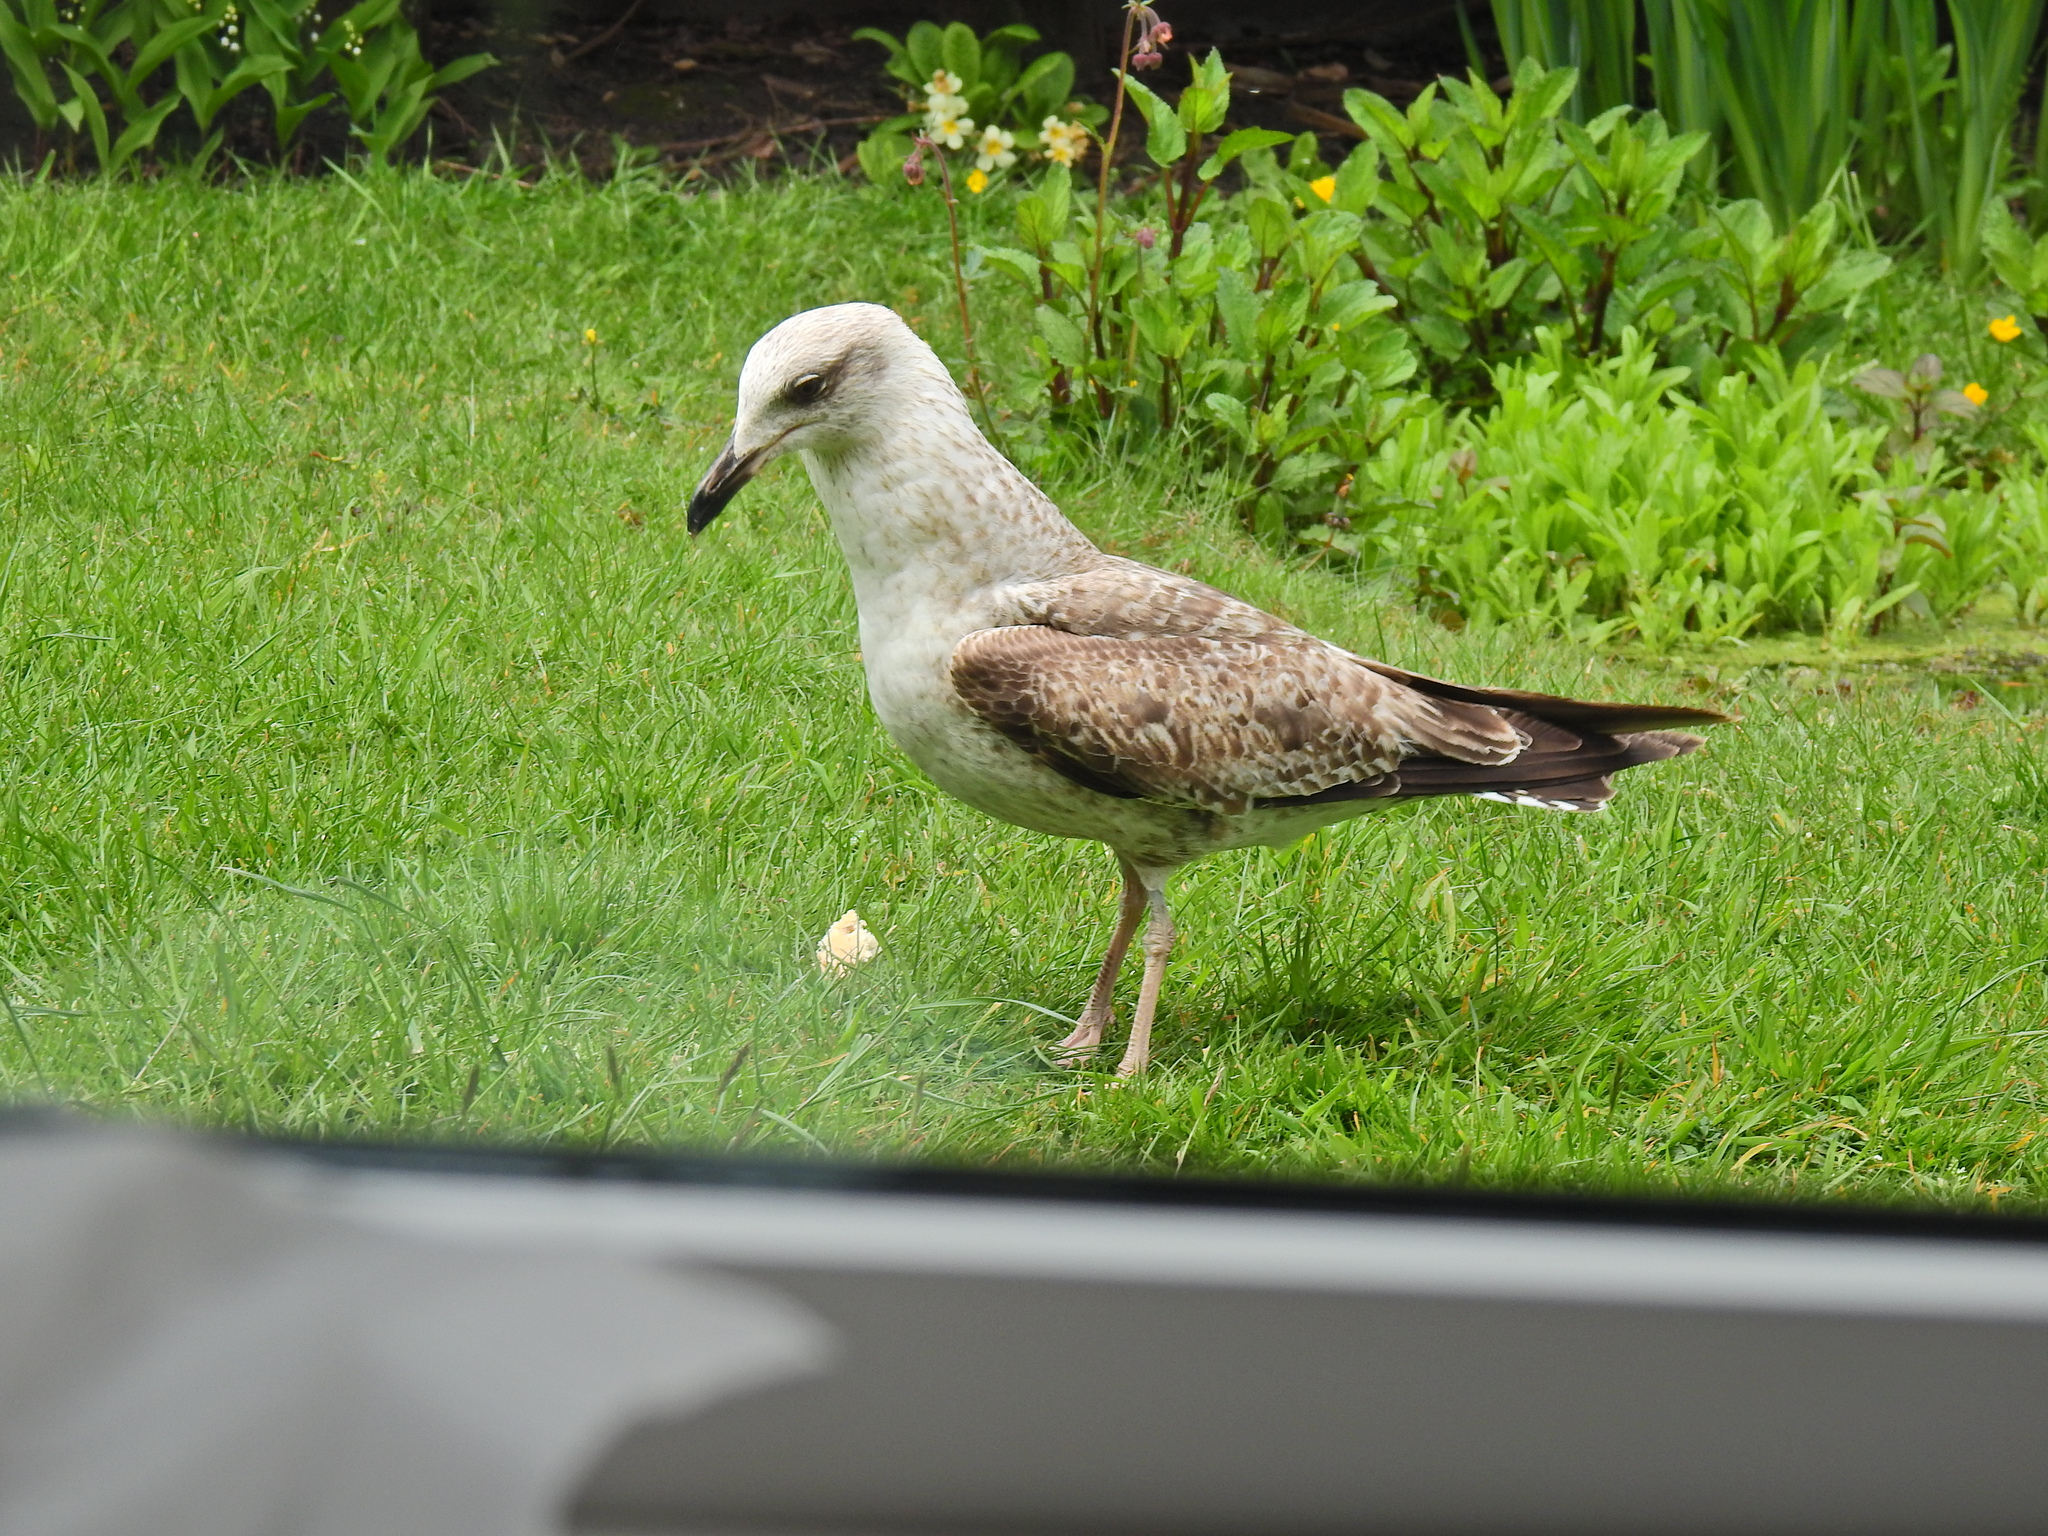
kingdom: Animalia
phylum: Chordata
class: Aves
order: Charadriiformes
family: Laridae
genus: Larus
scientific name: Larus fuscus
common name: Lesser black-backed gull
